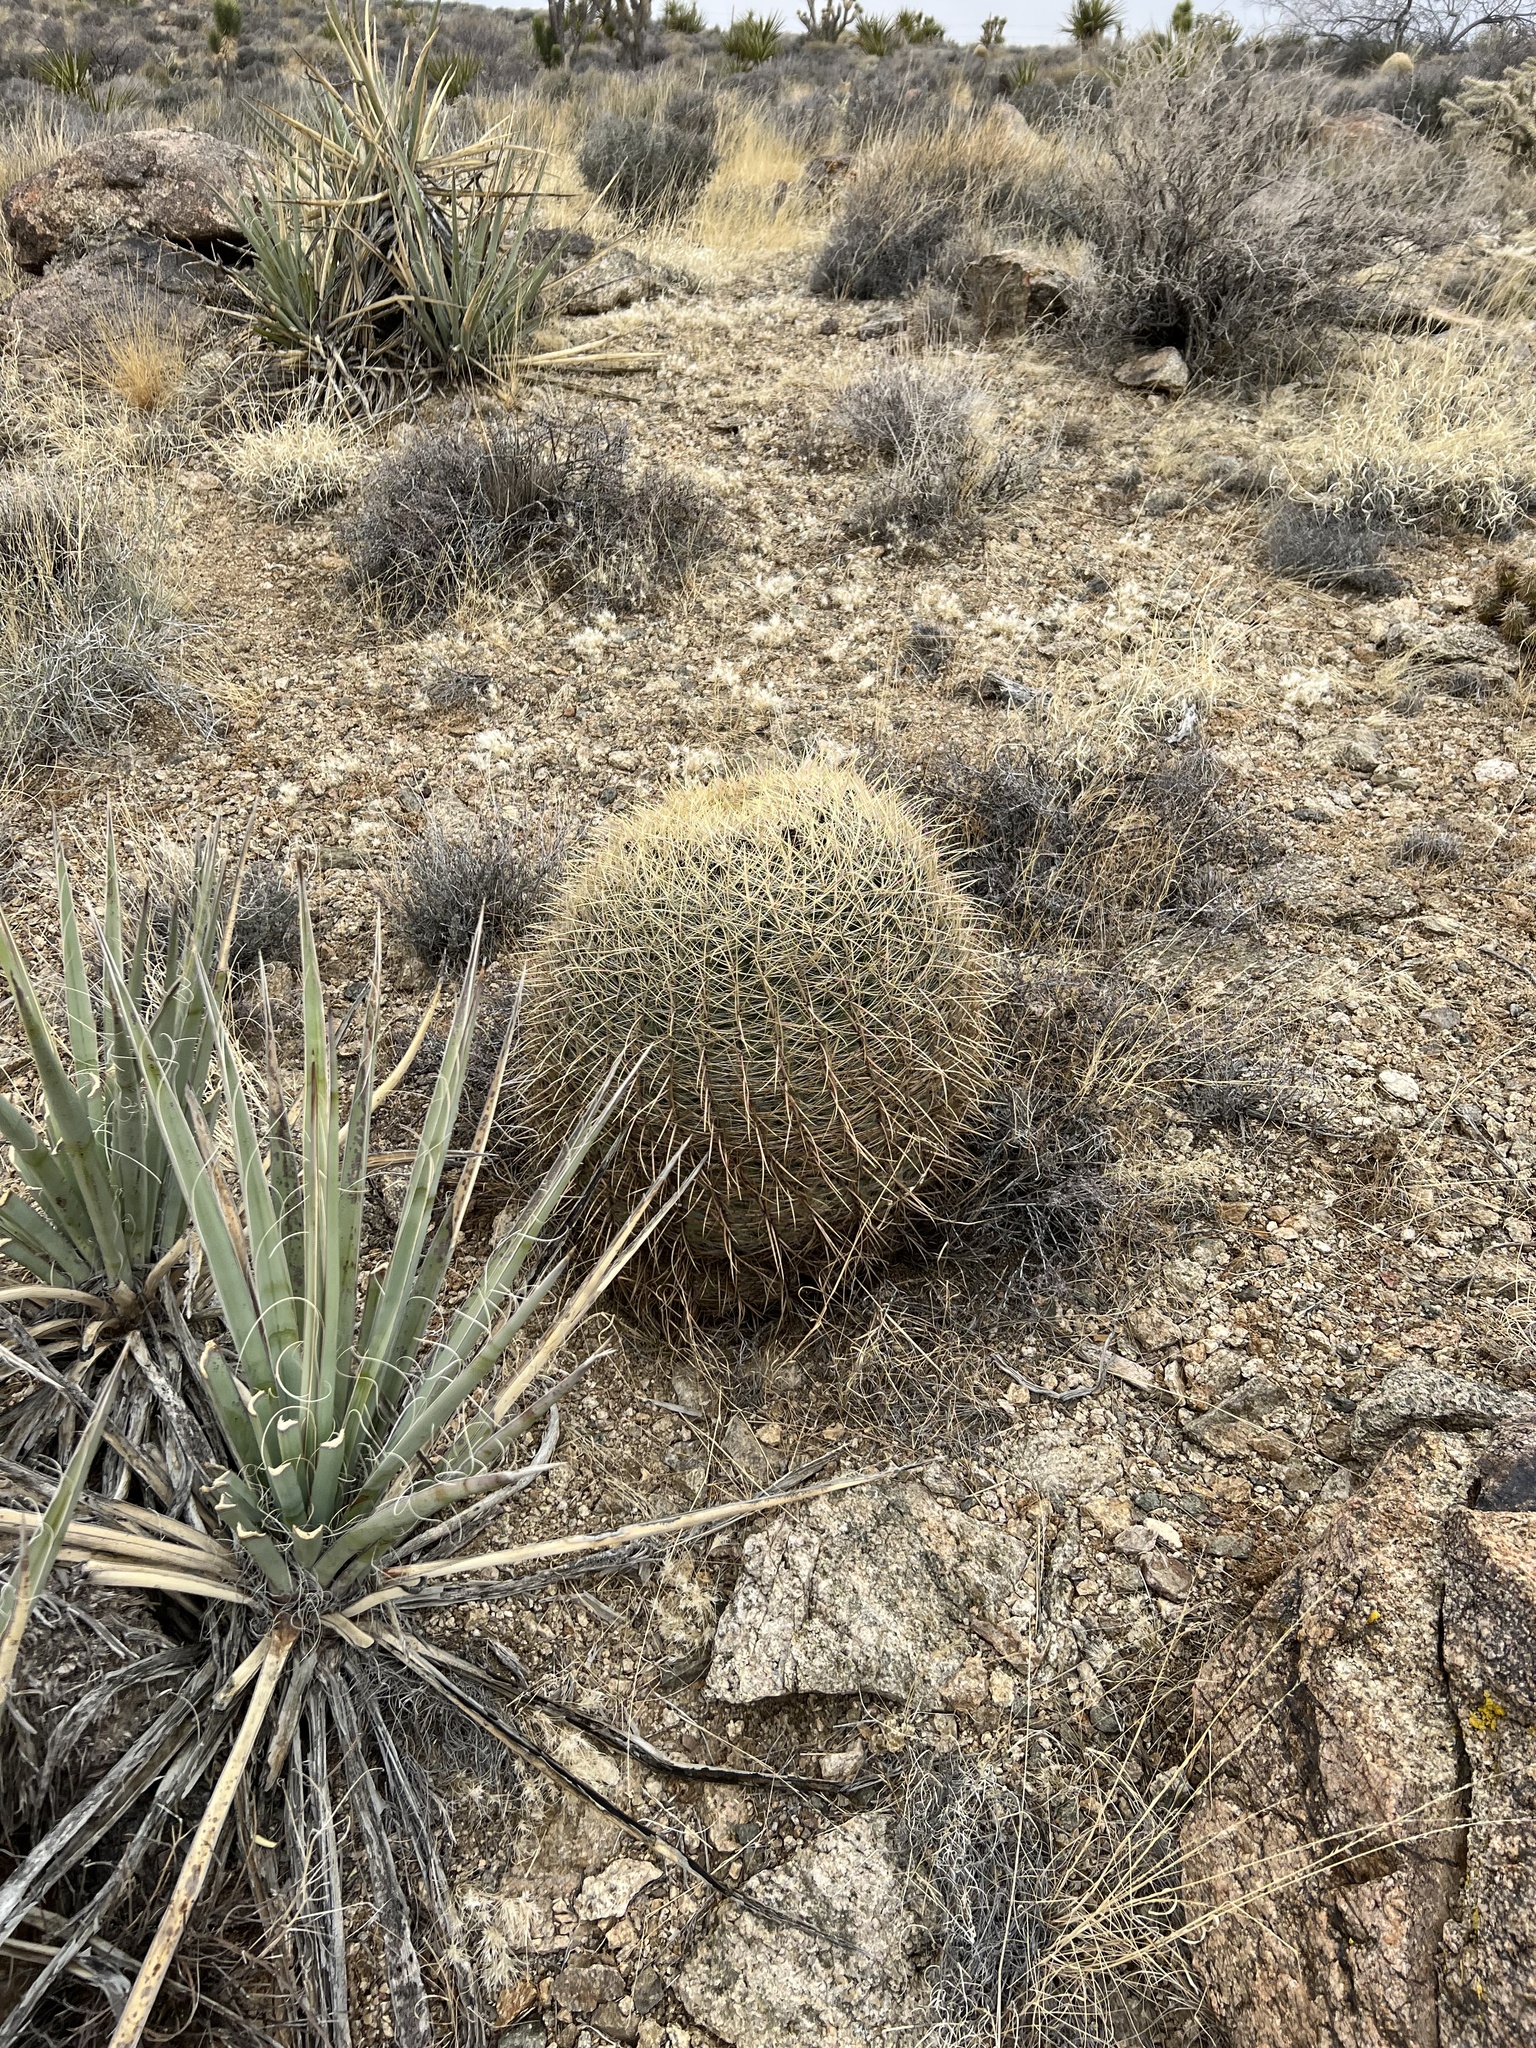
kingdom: Plantae
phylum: Tracheophyta
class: Magnoliopsida
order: Caryophyllales
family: Cactaceae
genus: Ferocactus
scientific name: Ferocactus cylindraceus
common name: California barrel cactus
